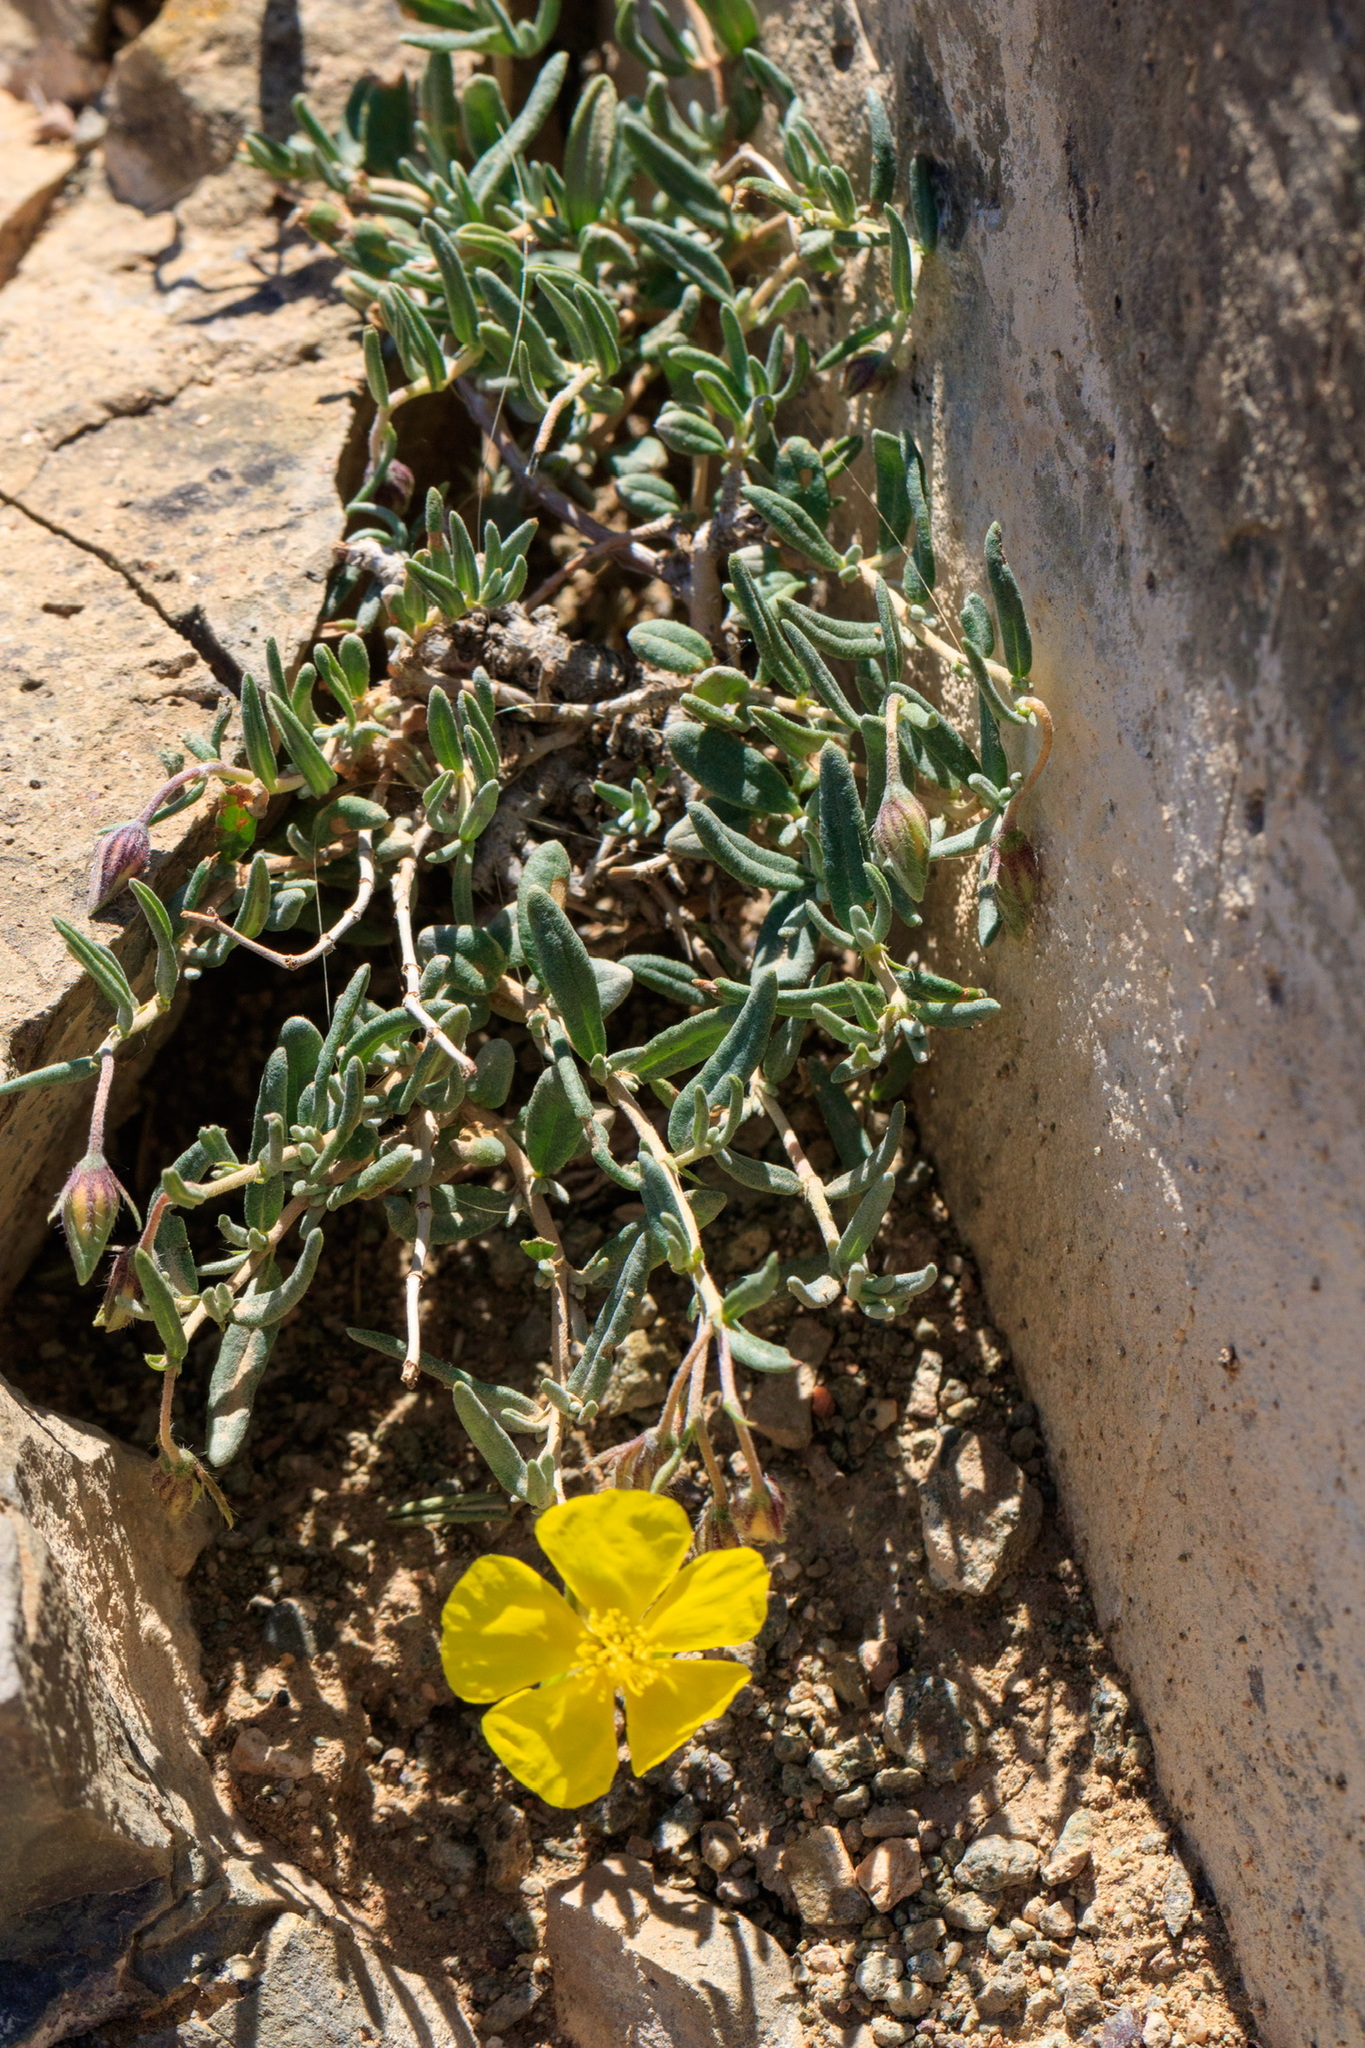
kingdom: Plantae
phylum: Tracheophyta
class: Magnoliopsida
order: Malvales
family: Cistaceae
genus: Helianthemum
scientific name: Helianthemum songaricum
